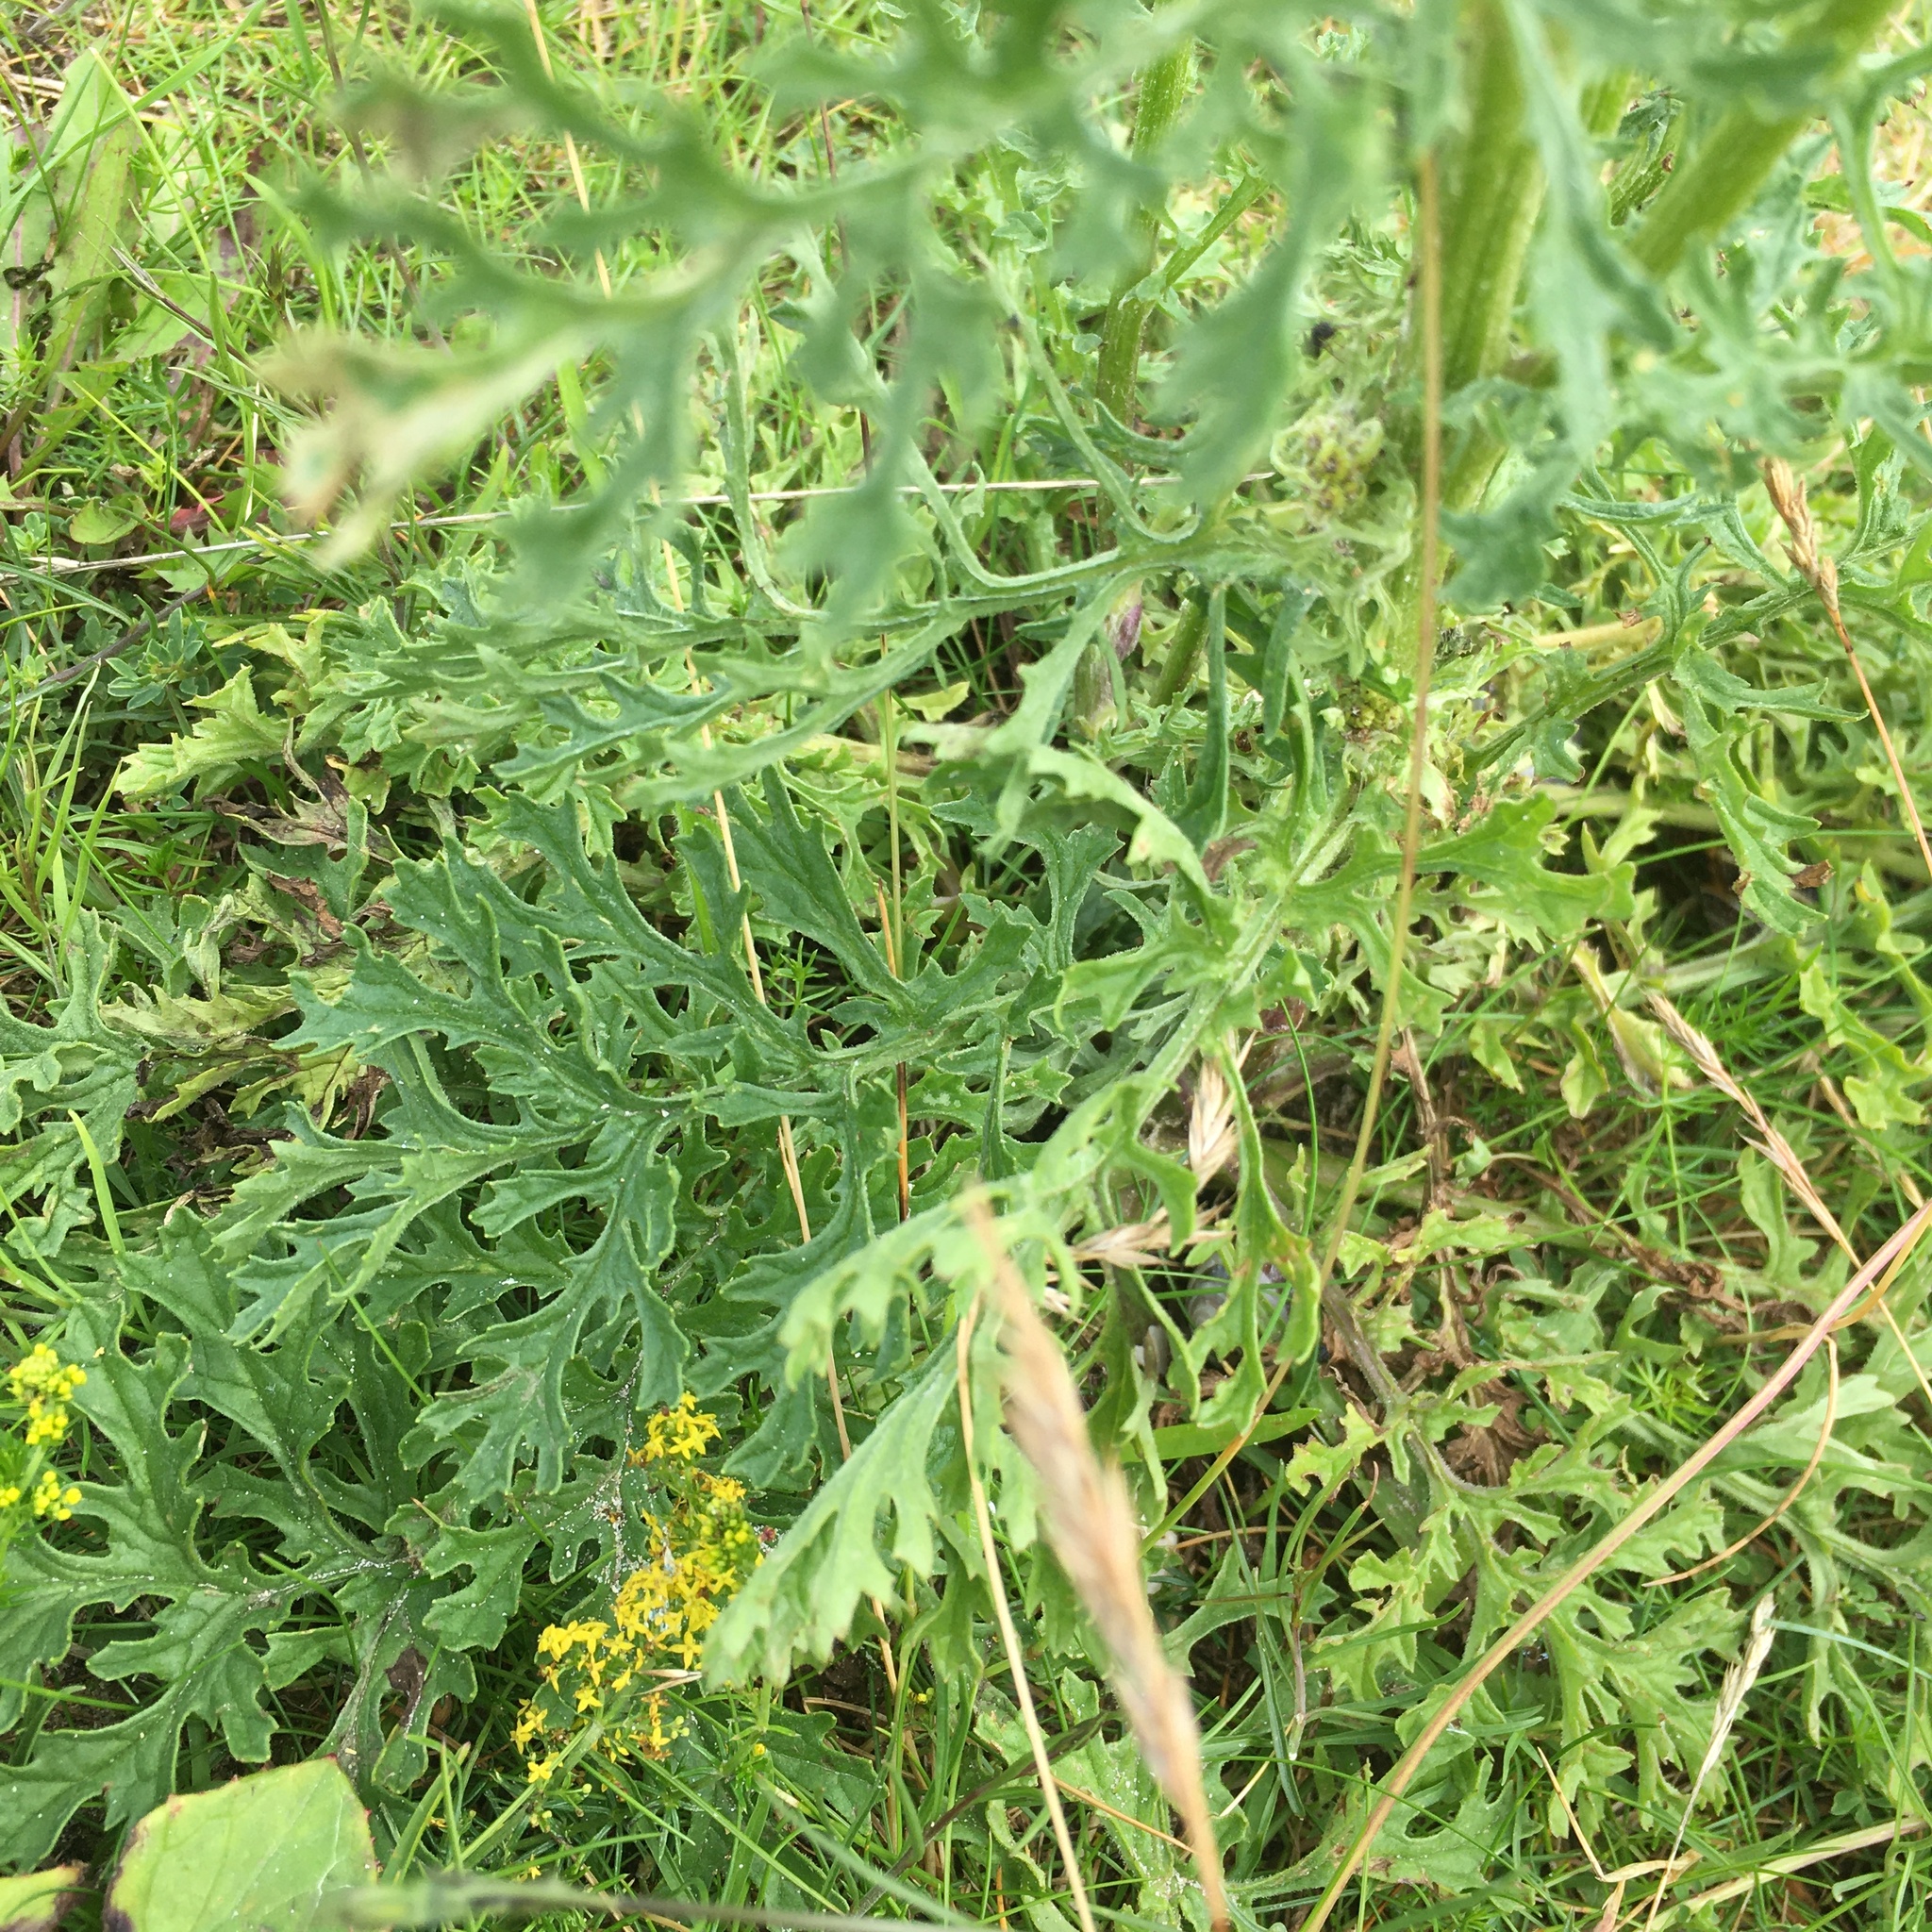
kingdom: Plantae
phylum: Tracheophyta
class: Magnoliopsida
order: Asterales
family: Asteraceae
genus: Jacobaea
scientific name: Jacobaea vulgaris
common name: Stinking willie
